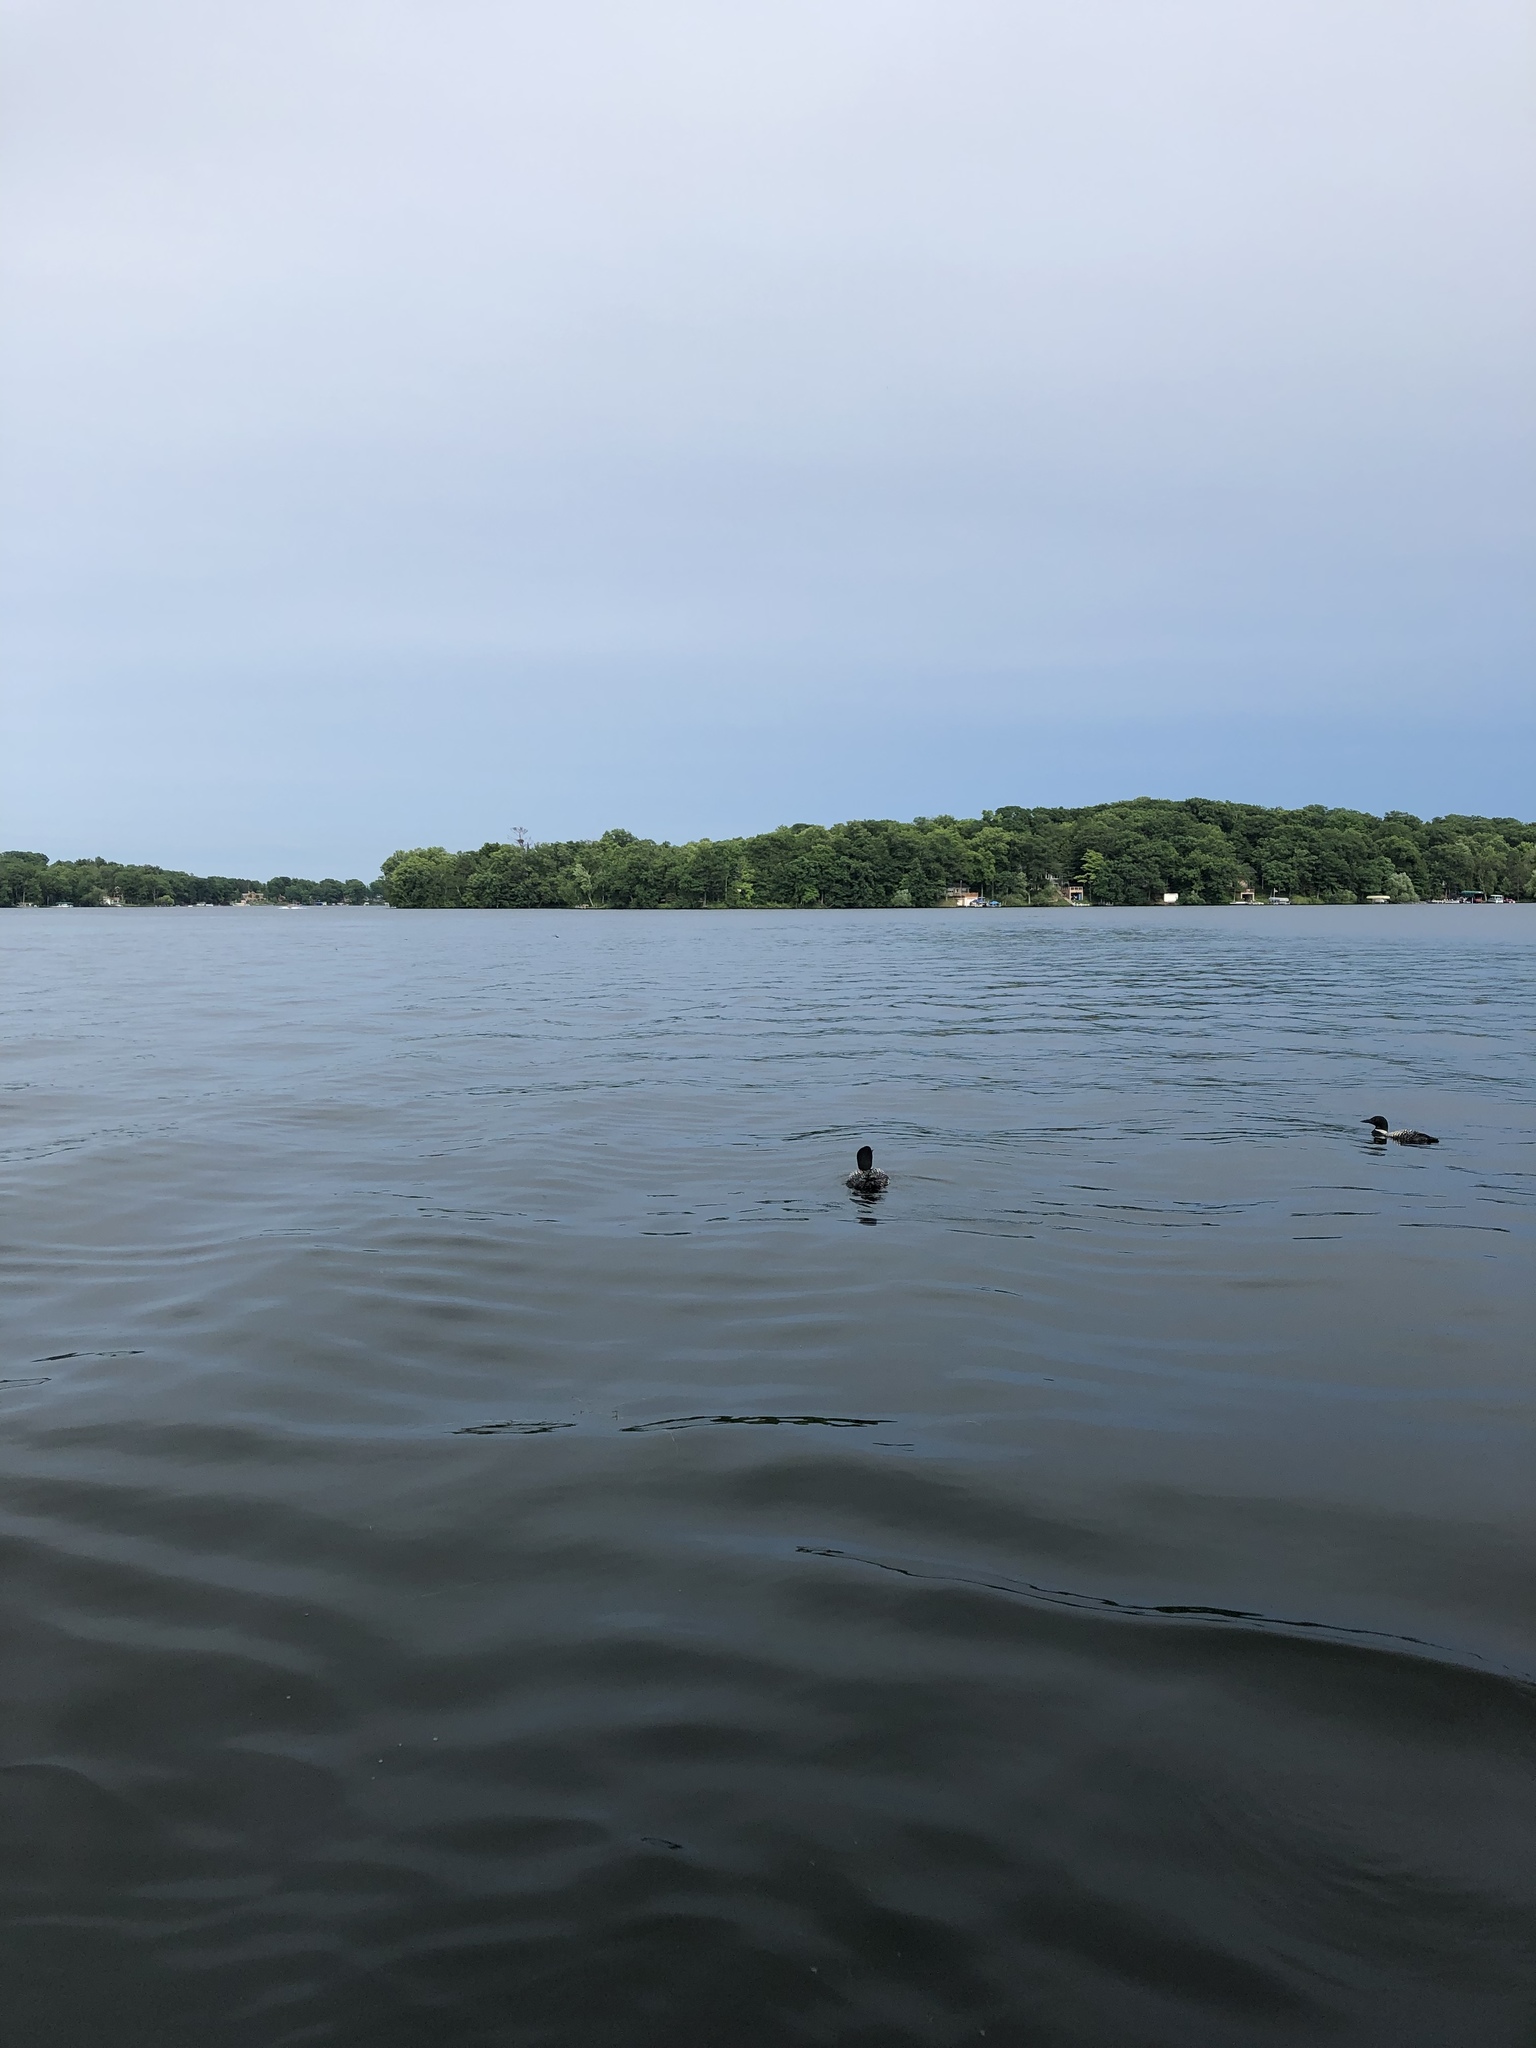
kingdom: Animalia
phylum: Chordata
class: Aves
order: Gaviiformes
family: Gaviidae
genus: Gavia
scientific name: Gavia immer
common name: Common loon
